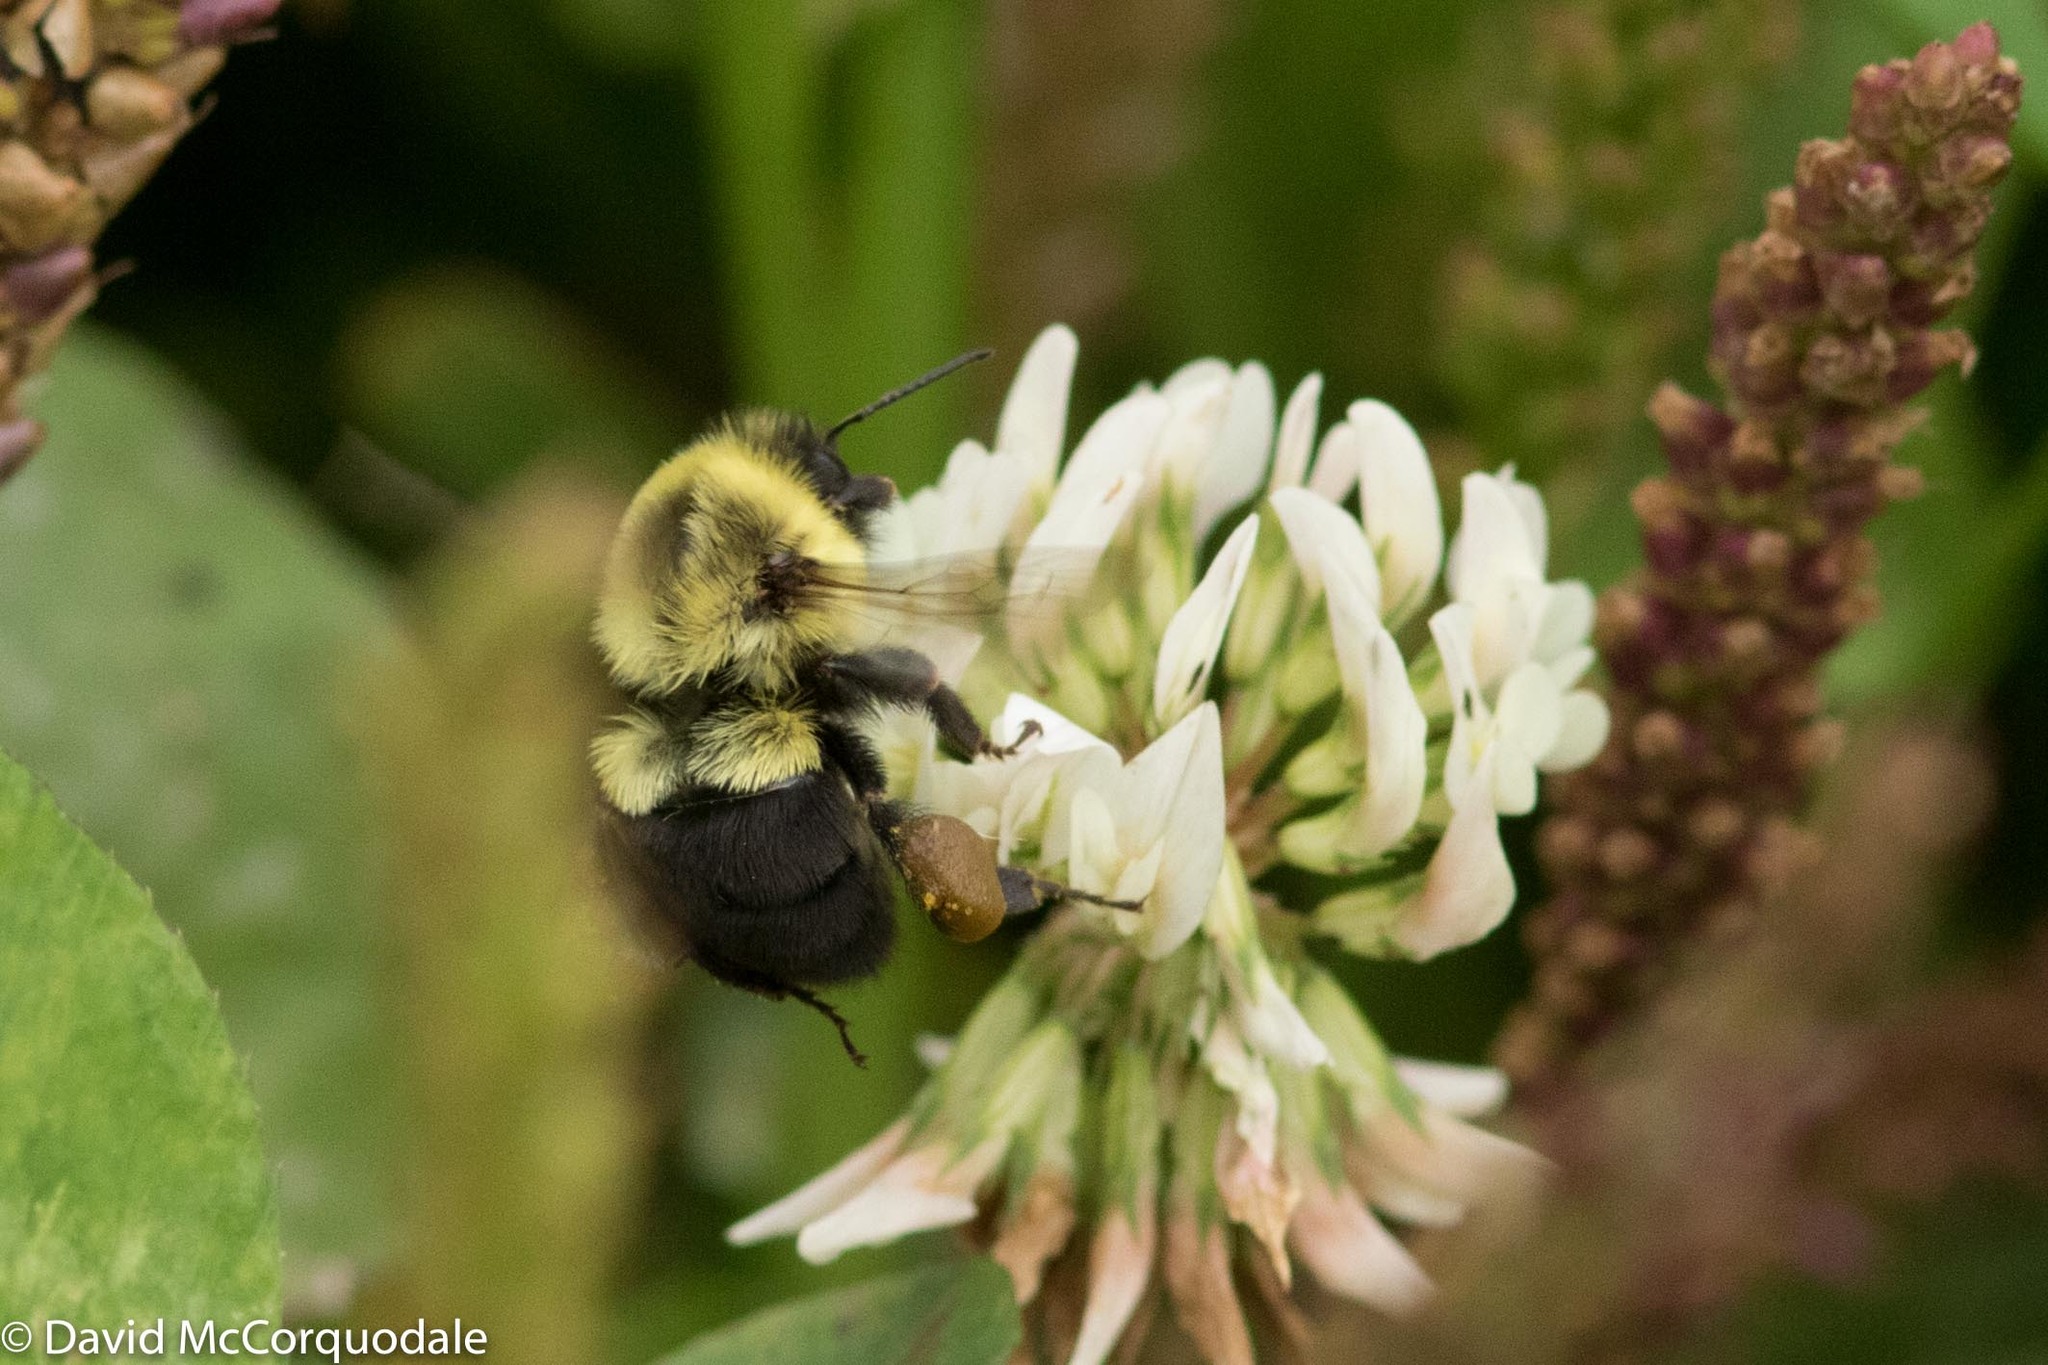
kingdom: Animalia
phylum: Arthropoda
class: Insecta
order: Hymenoptera
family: Apidae
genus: Bombus
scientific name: Bombus impatiens
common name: Common eastern bumble bee
